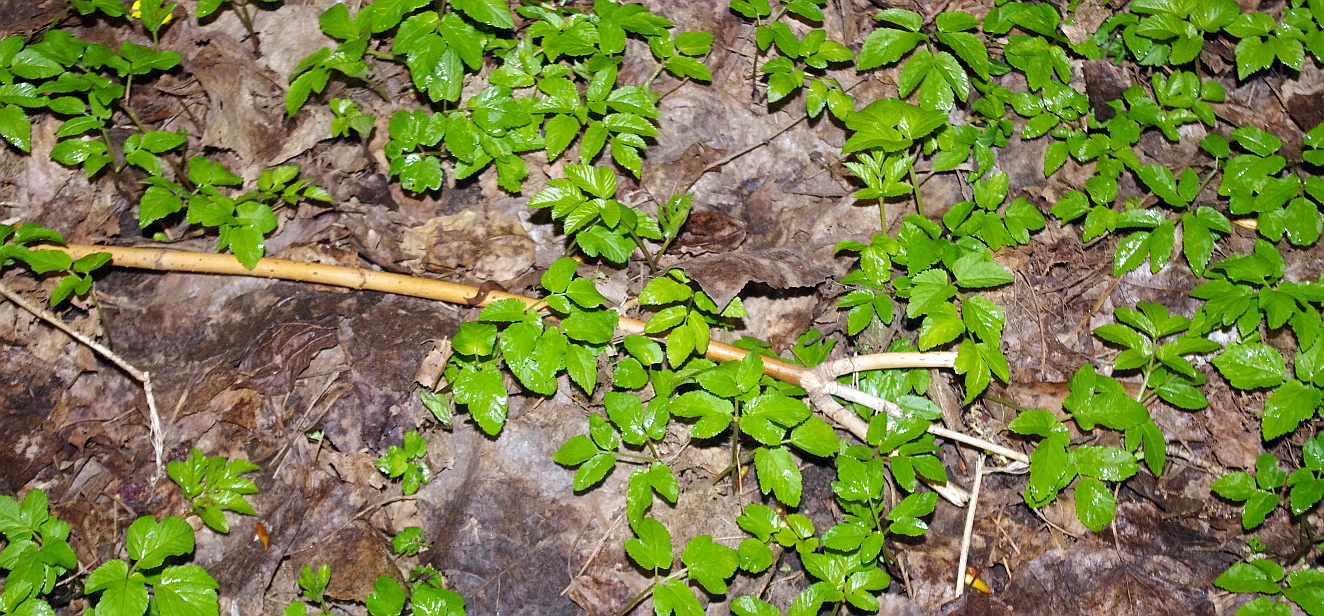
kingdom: Plantae
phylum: Tracheophyta
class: Magnoliopsida
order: Apiales
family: Apiaceae
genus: Aegopodium
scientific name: Aegopodium podagraria
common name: Ground-elder
